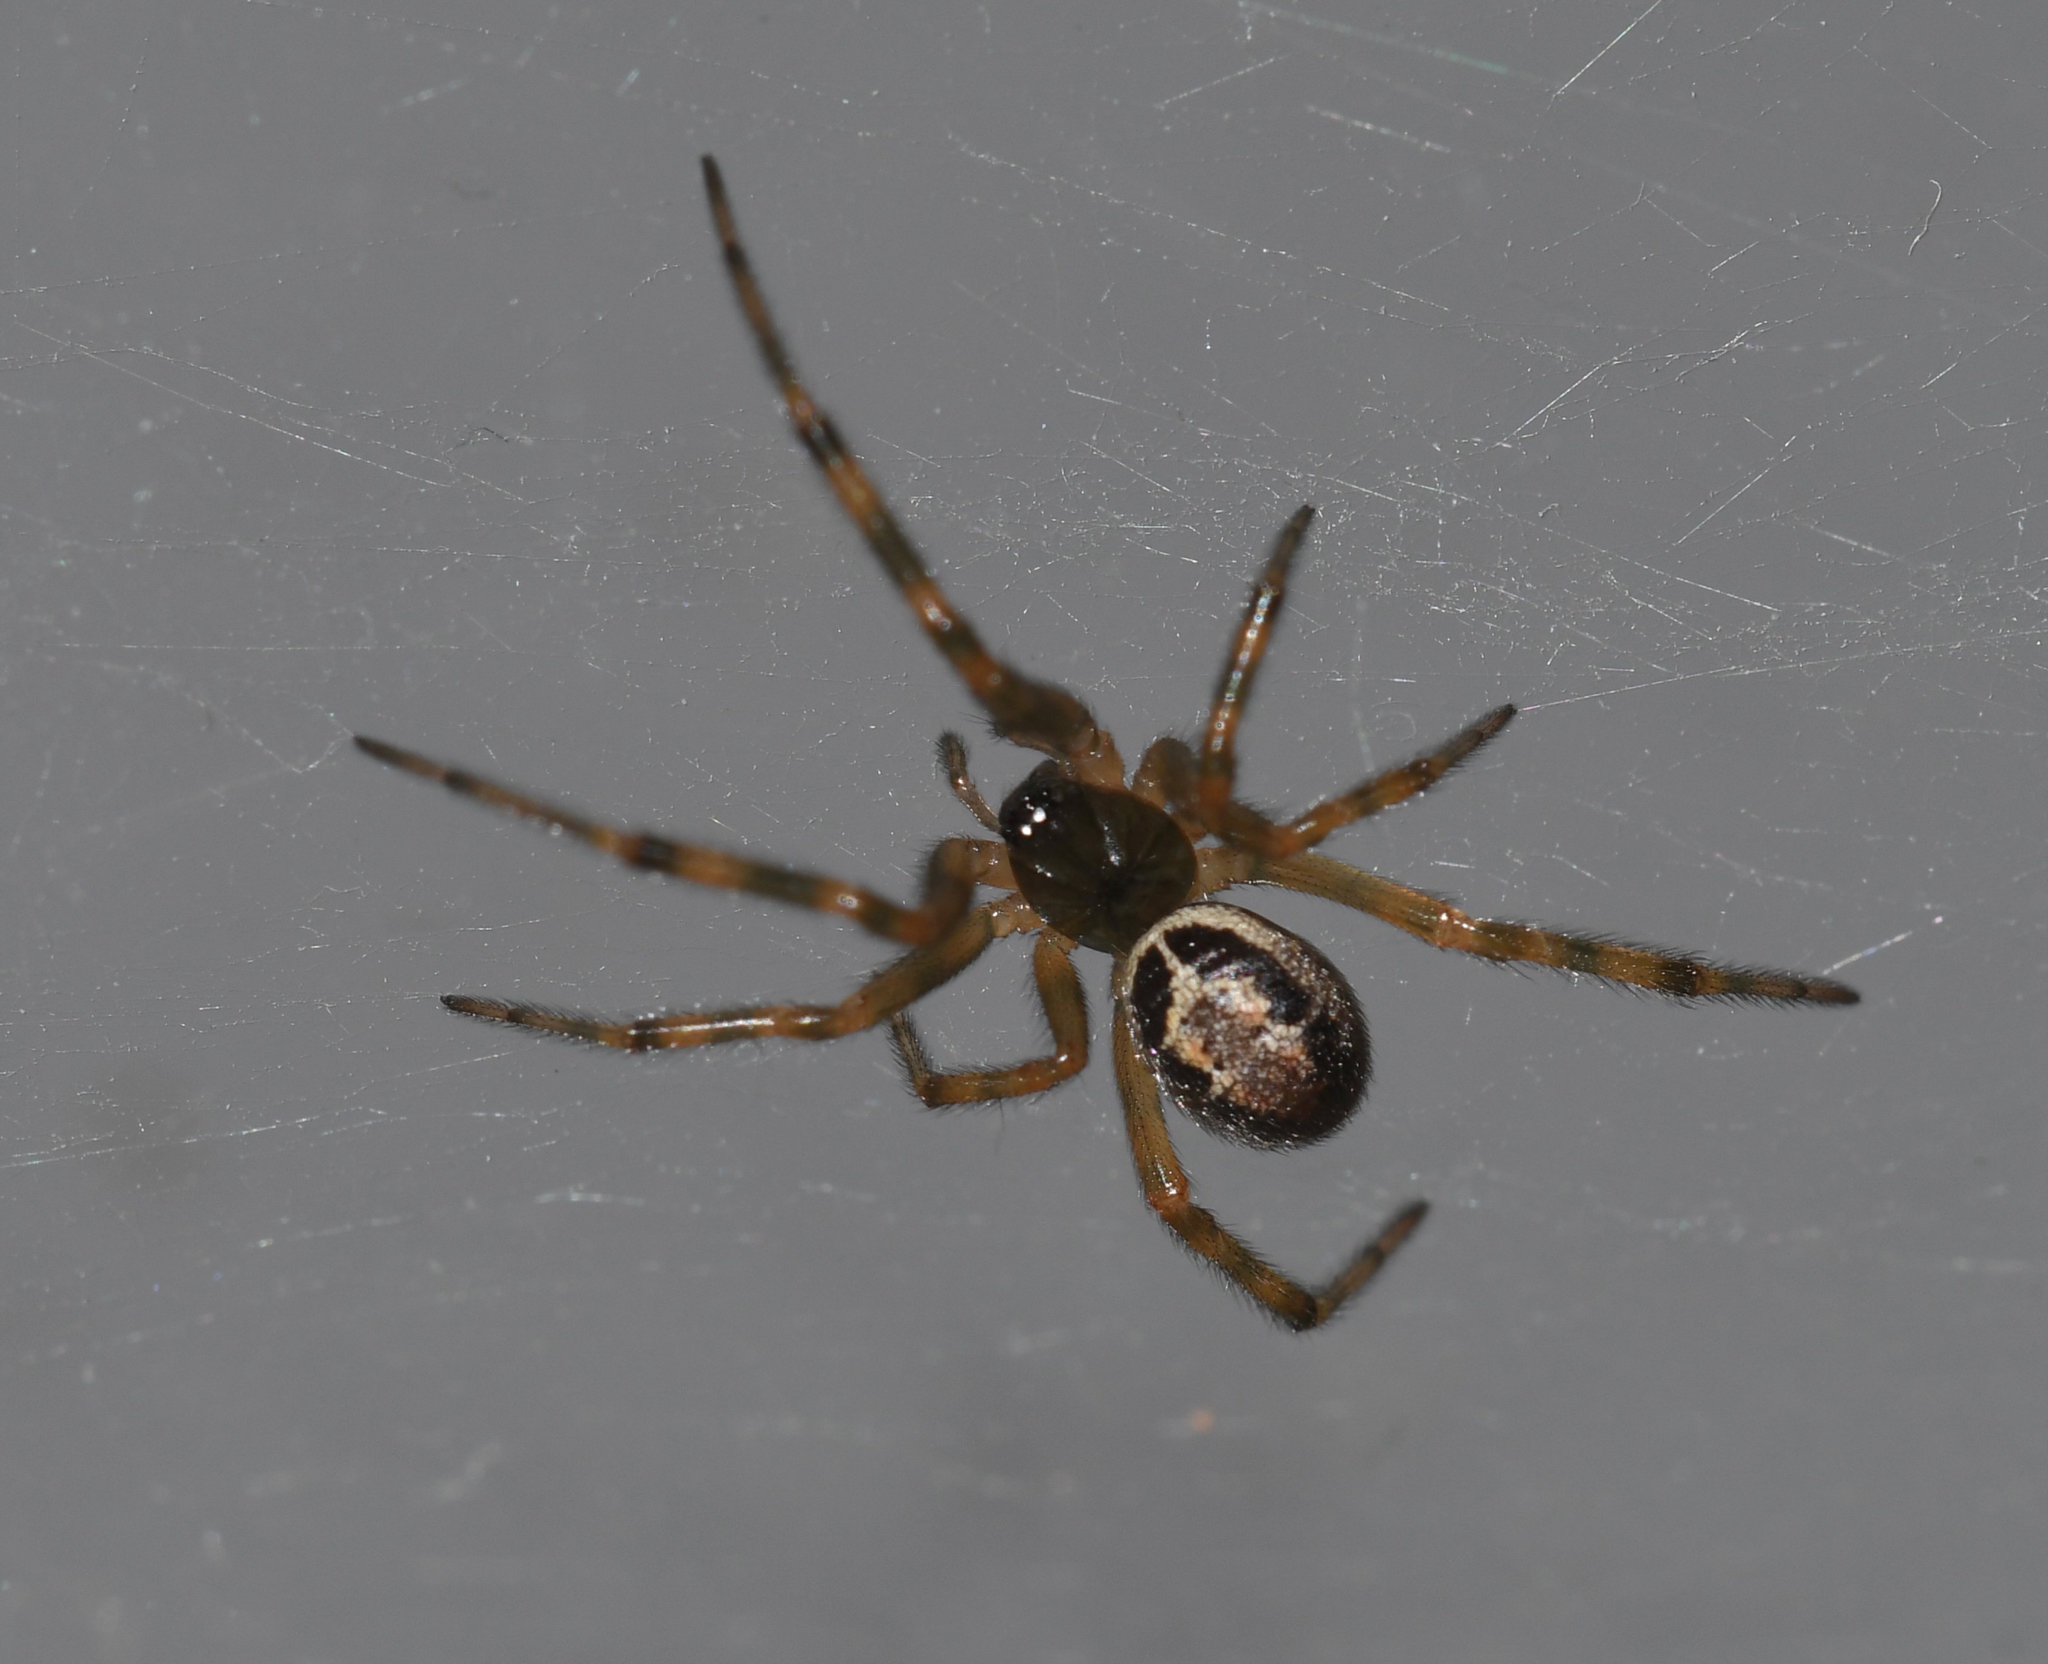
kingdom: Animalia
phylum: Arthropoda
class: Arachnida
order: Araneae
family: Theridiidae
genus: Steatoda
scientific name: Steatoda nobilis
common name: Cobweb weaver
